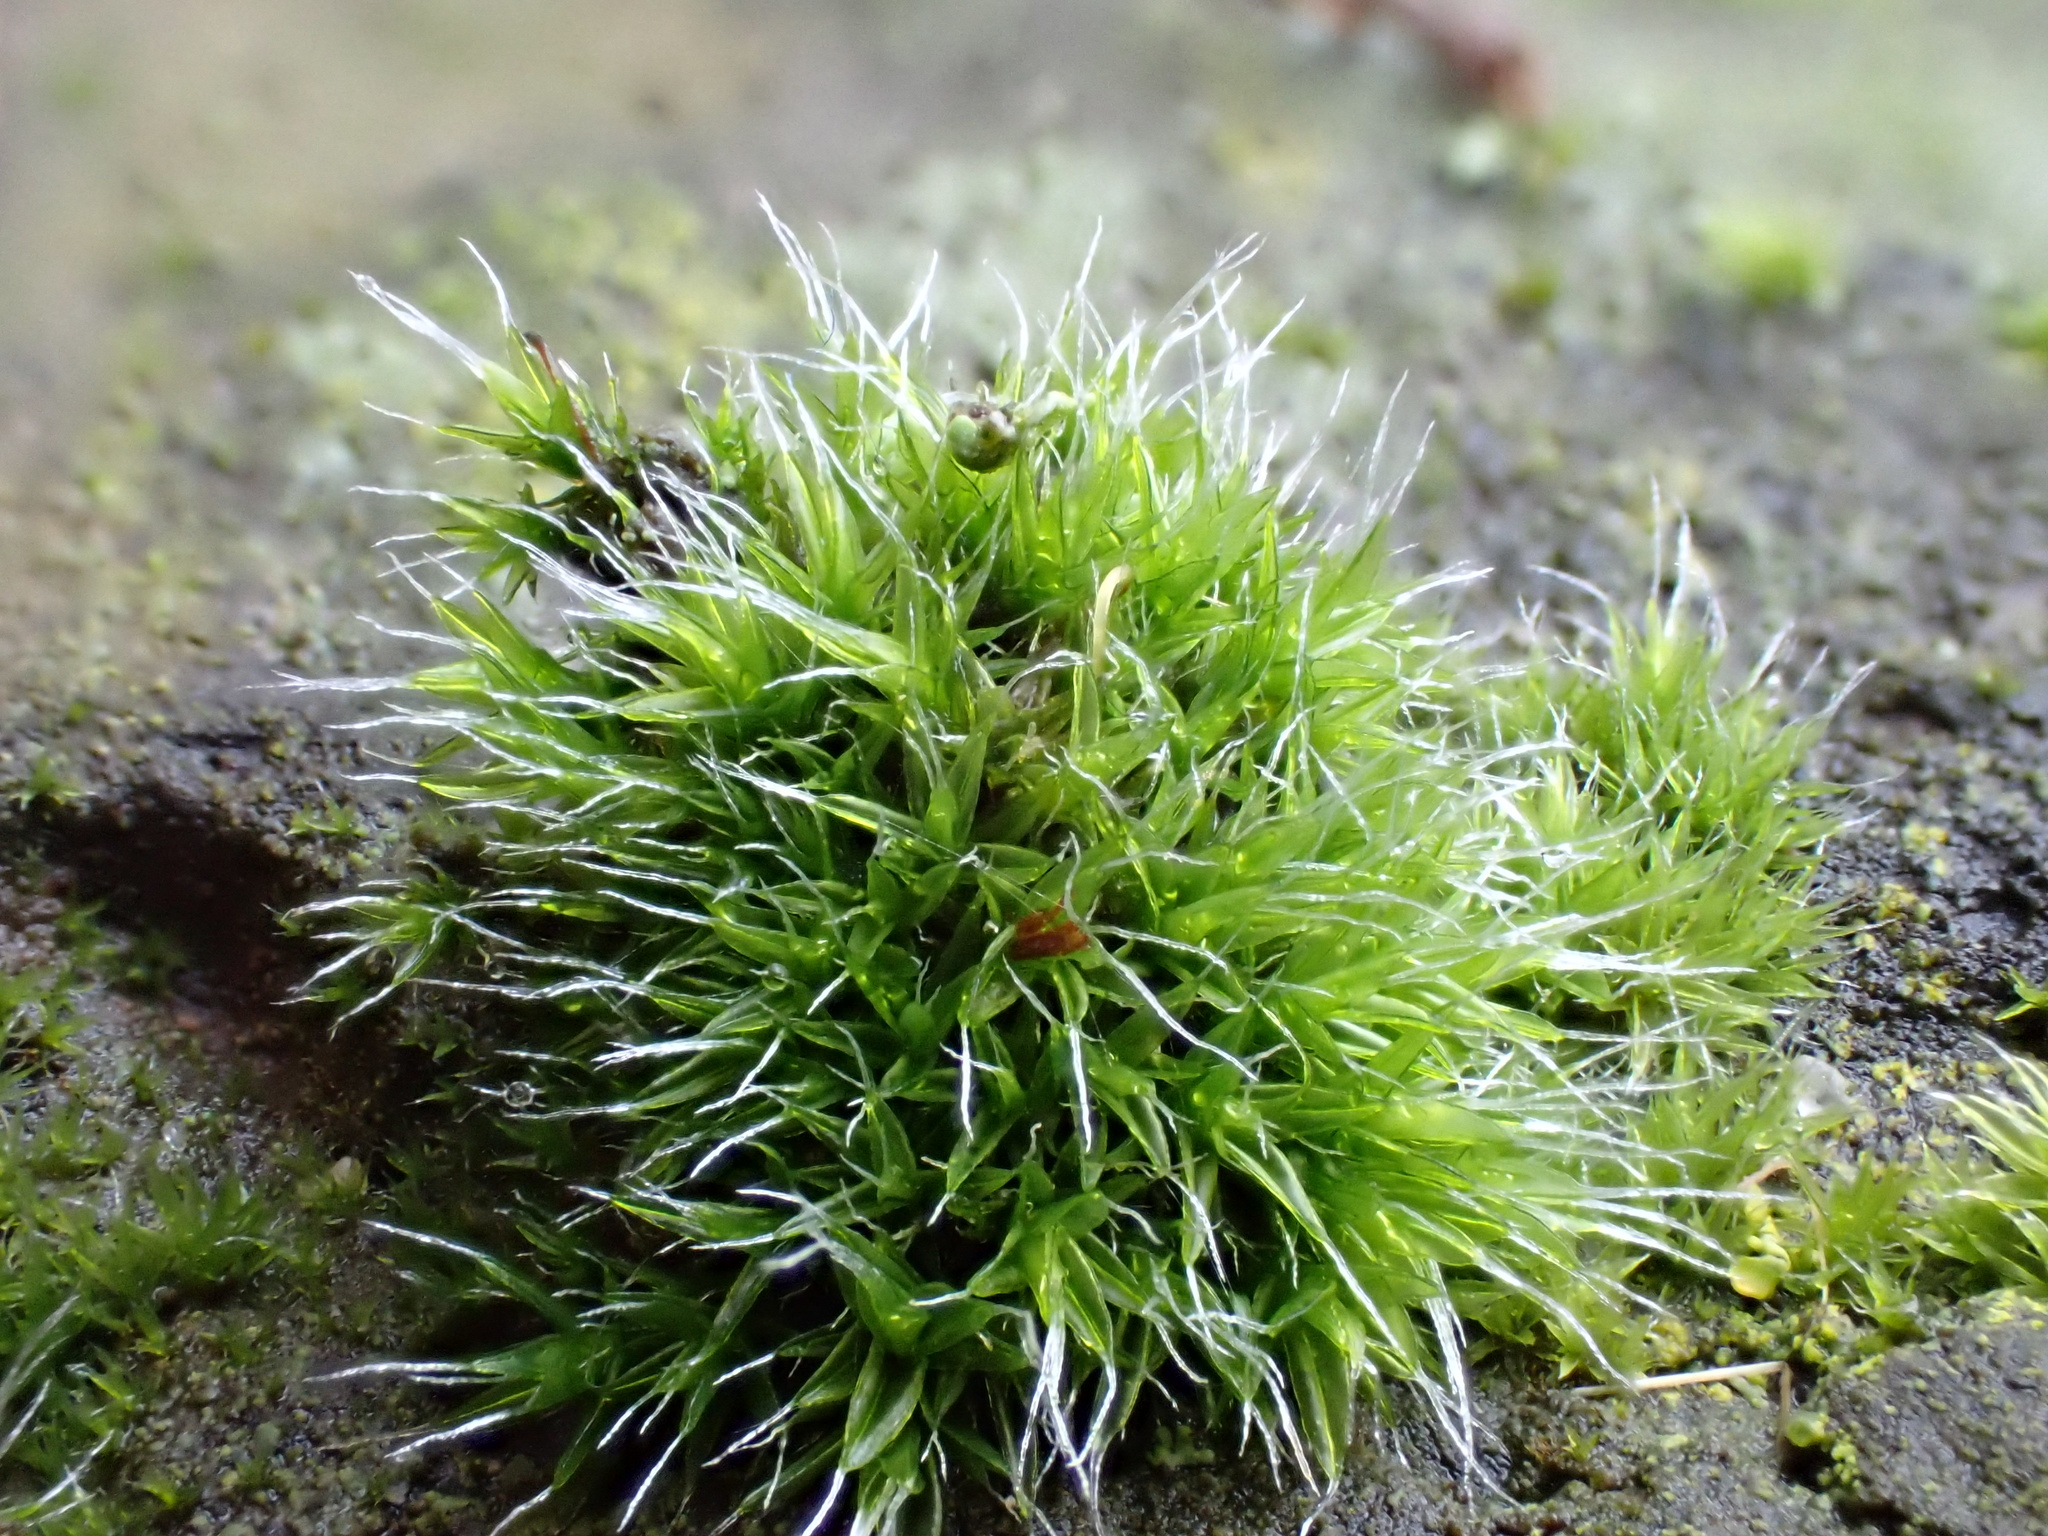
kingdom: Plantae
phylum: Bryophyta
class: Bryopsida
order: Grimmiales
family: Grimmiaceae
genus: Grimmia
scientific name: Grimmia pulvinata
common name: Grey-cushioned grimmia
